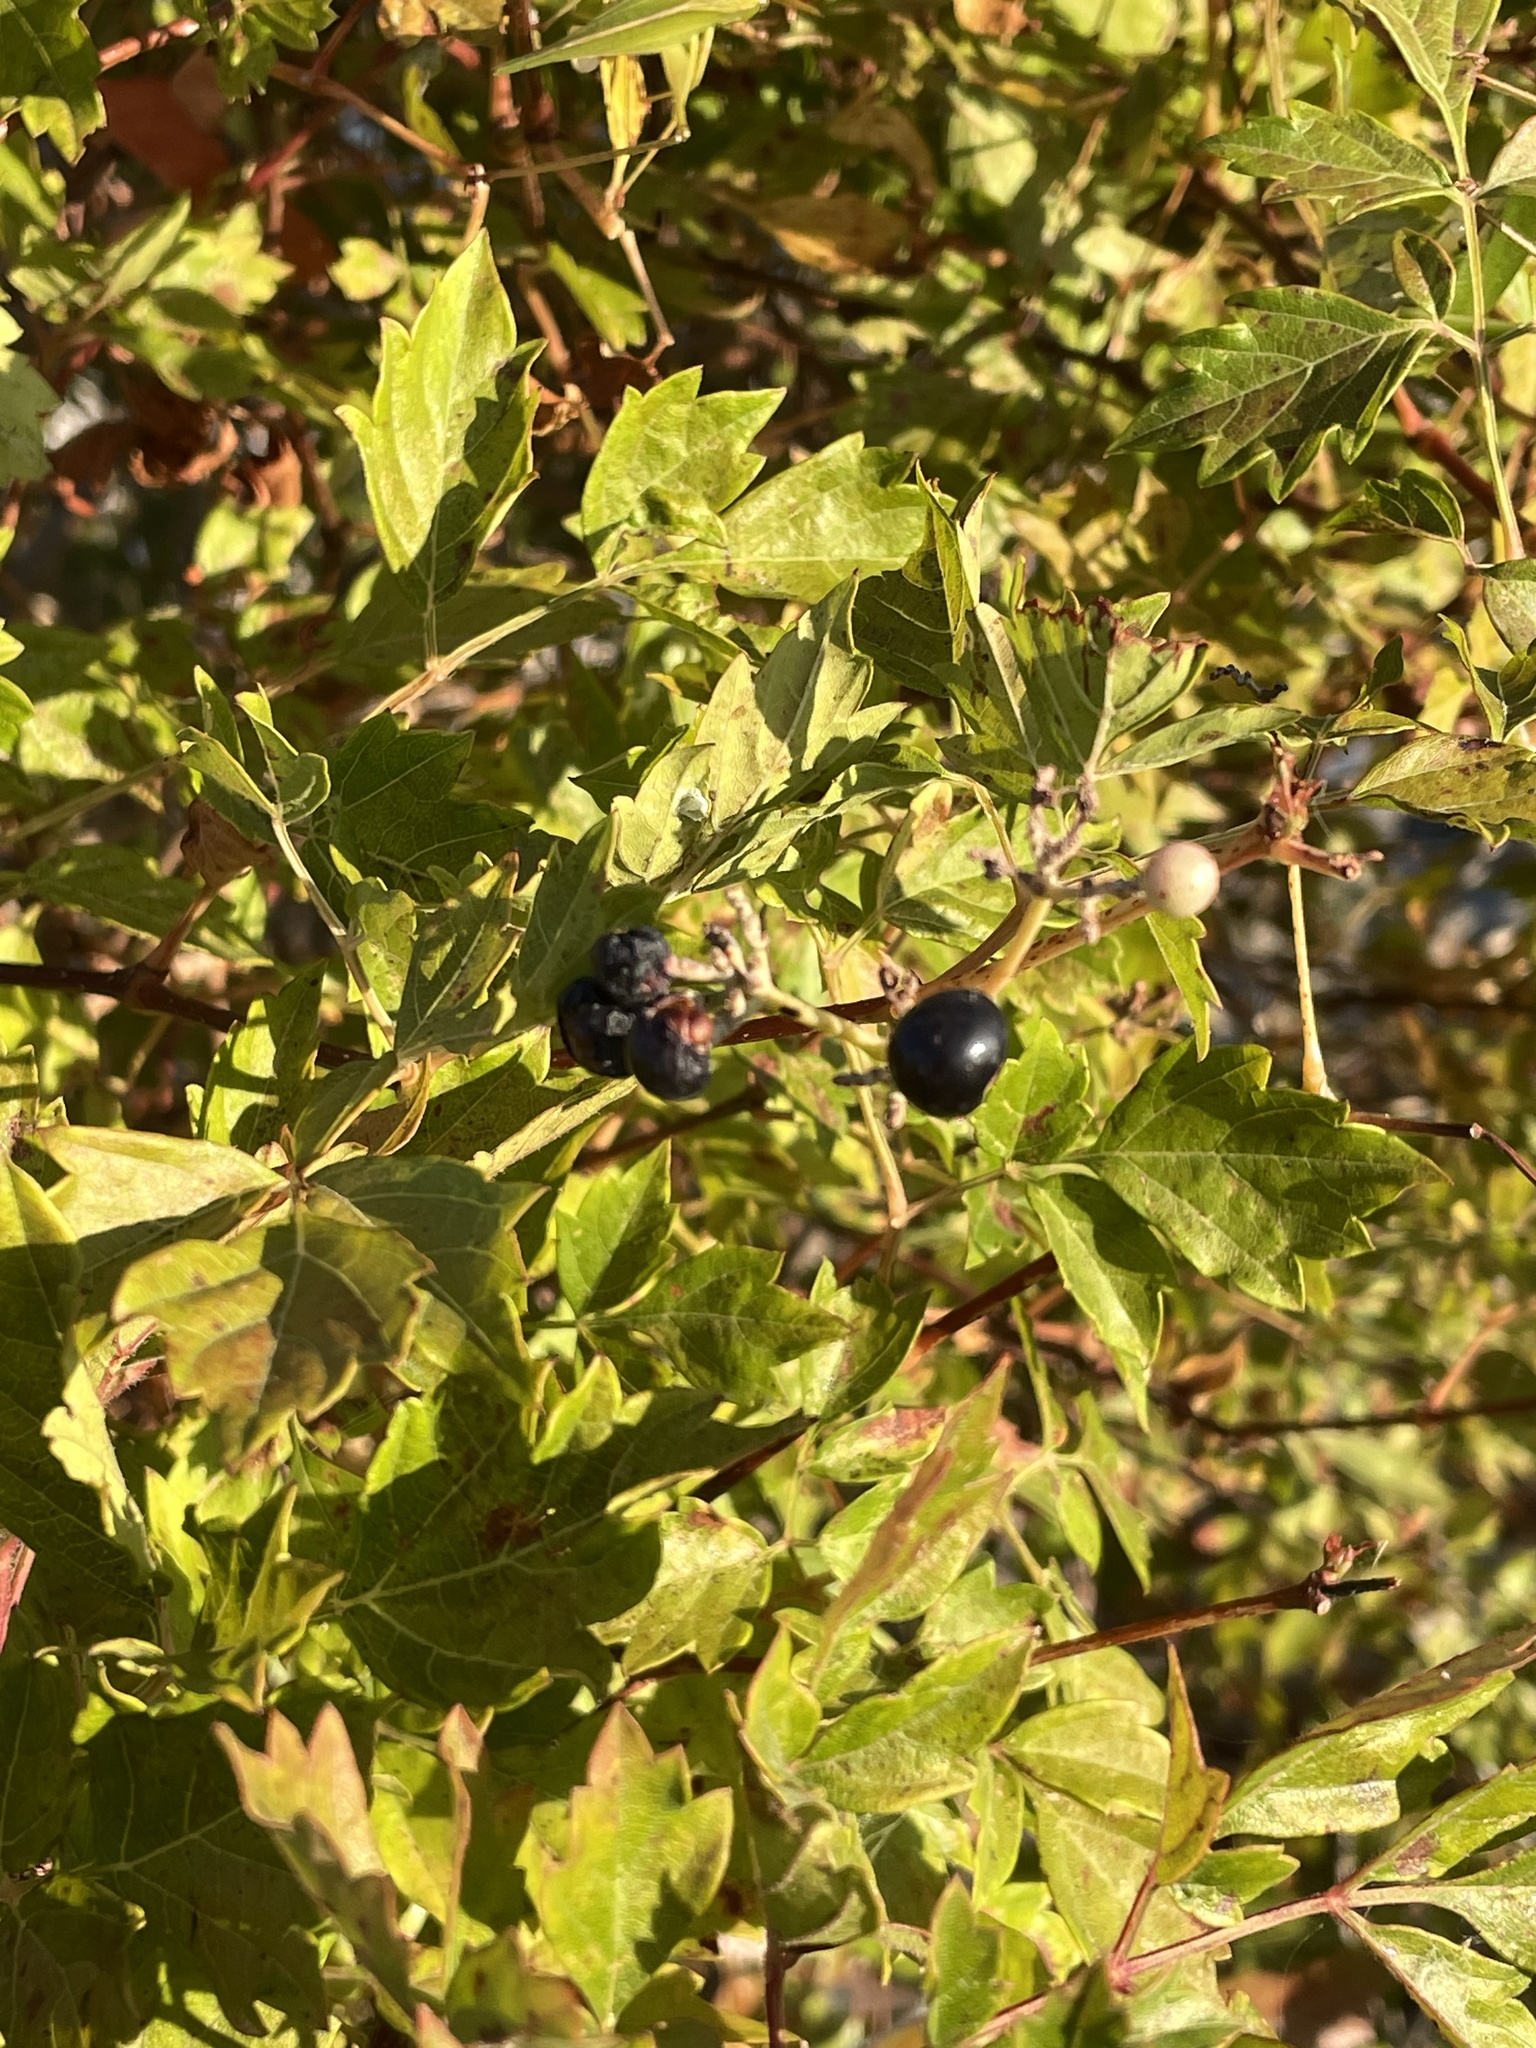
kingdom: Plantae
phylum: Tracheophyta
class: Magnoliopsida
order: Vitales
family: Vitaceae
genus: Nekemias
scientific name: Nekemias arborea
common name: Peppervine
